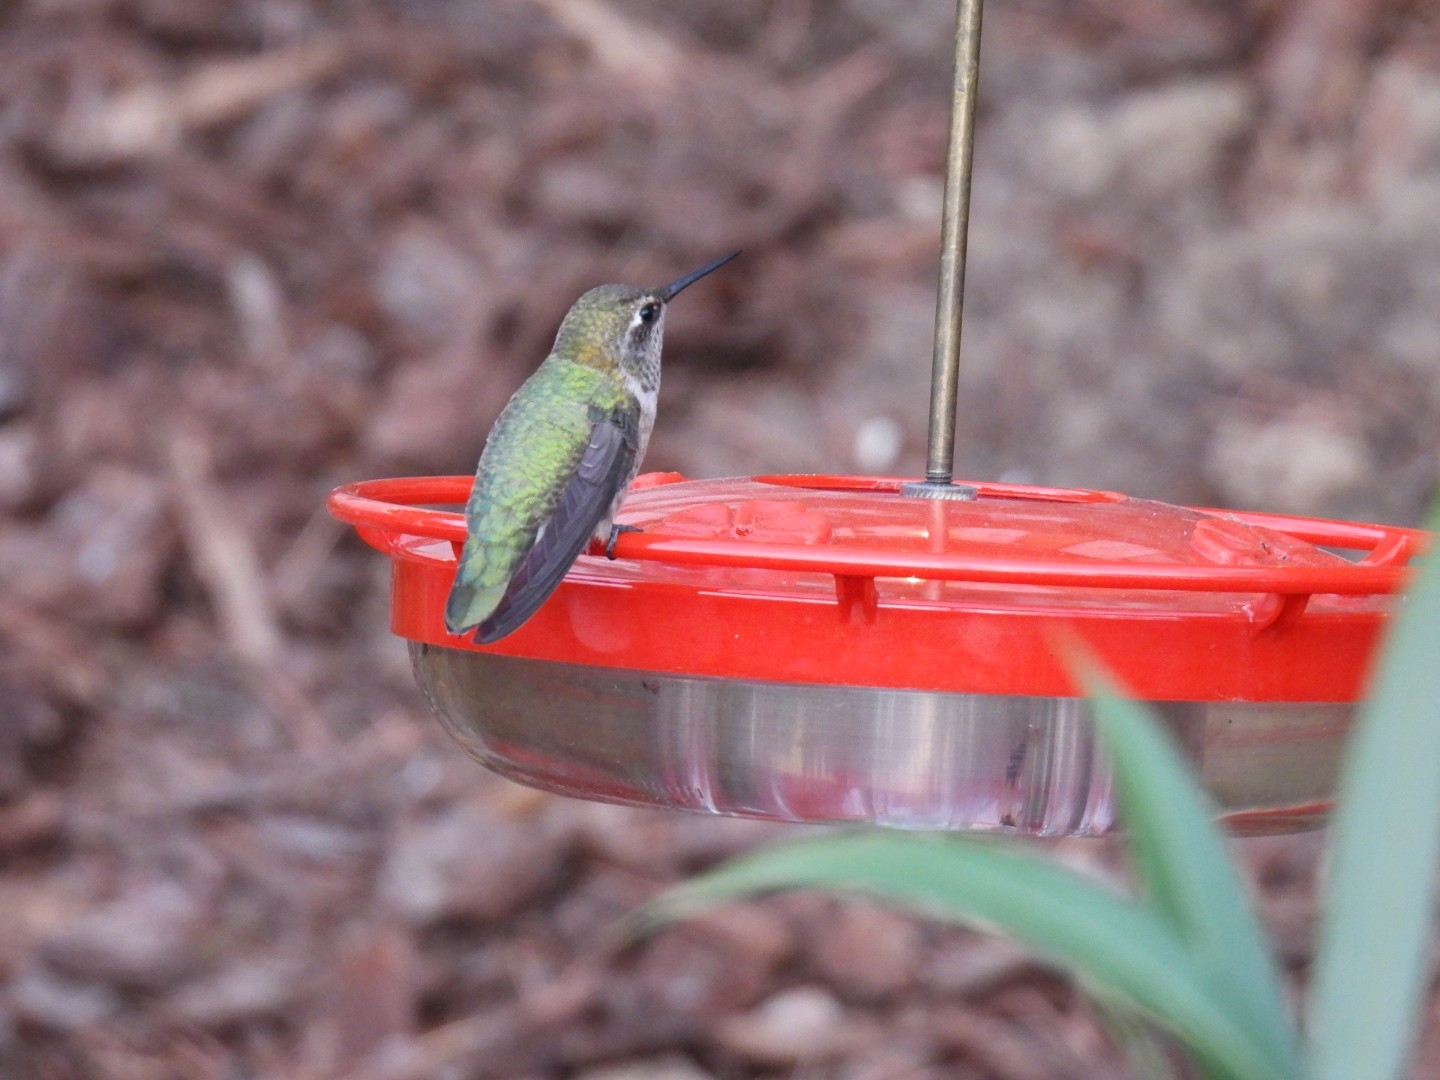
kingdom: Animalia
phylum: Chordata
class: Aves
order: Apodiformes
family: Trochilidae
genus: Calypte
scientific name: Calypte anna
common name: Anna's hummingbird
